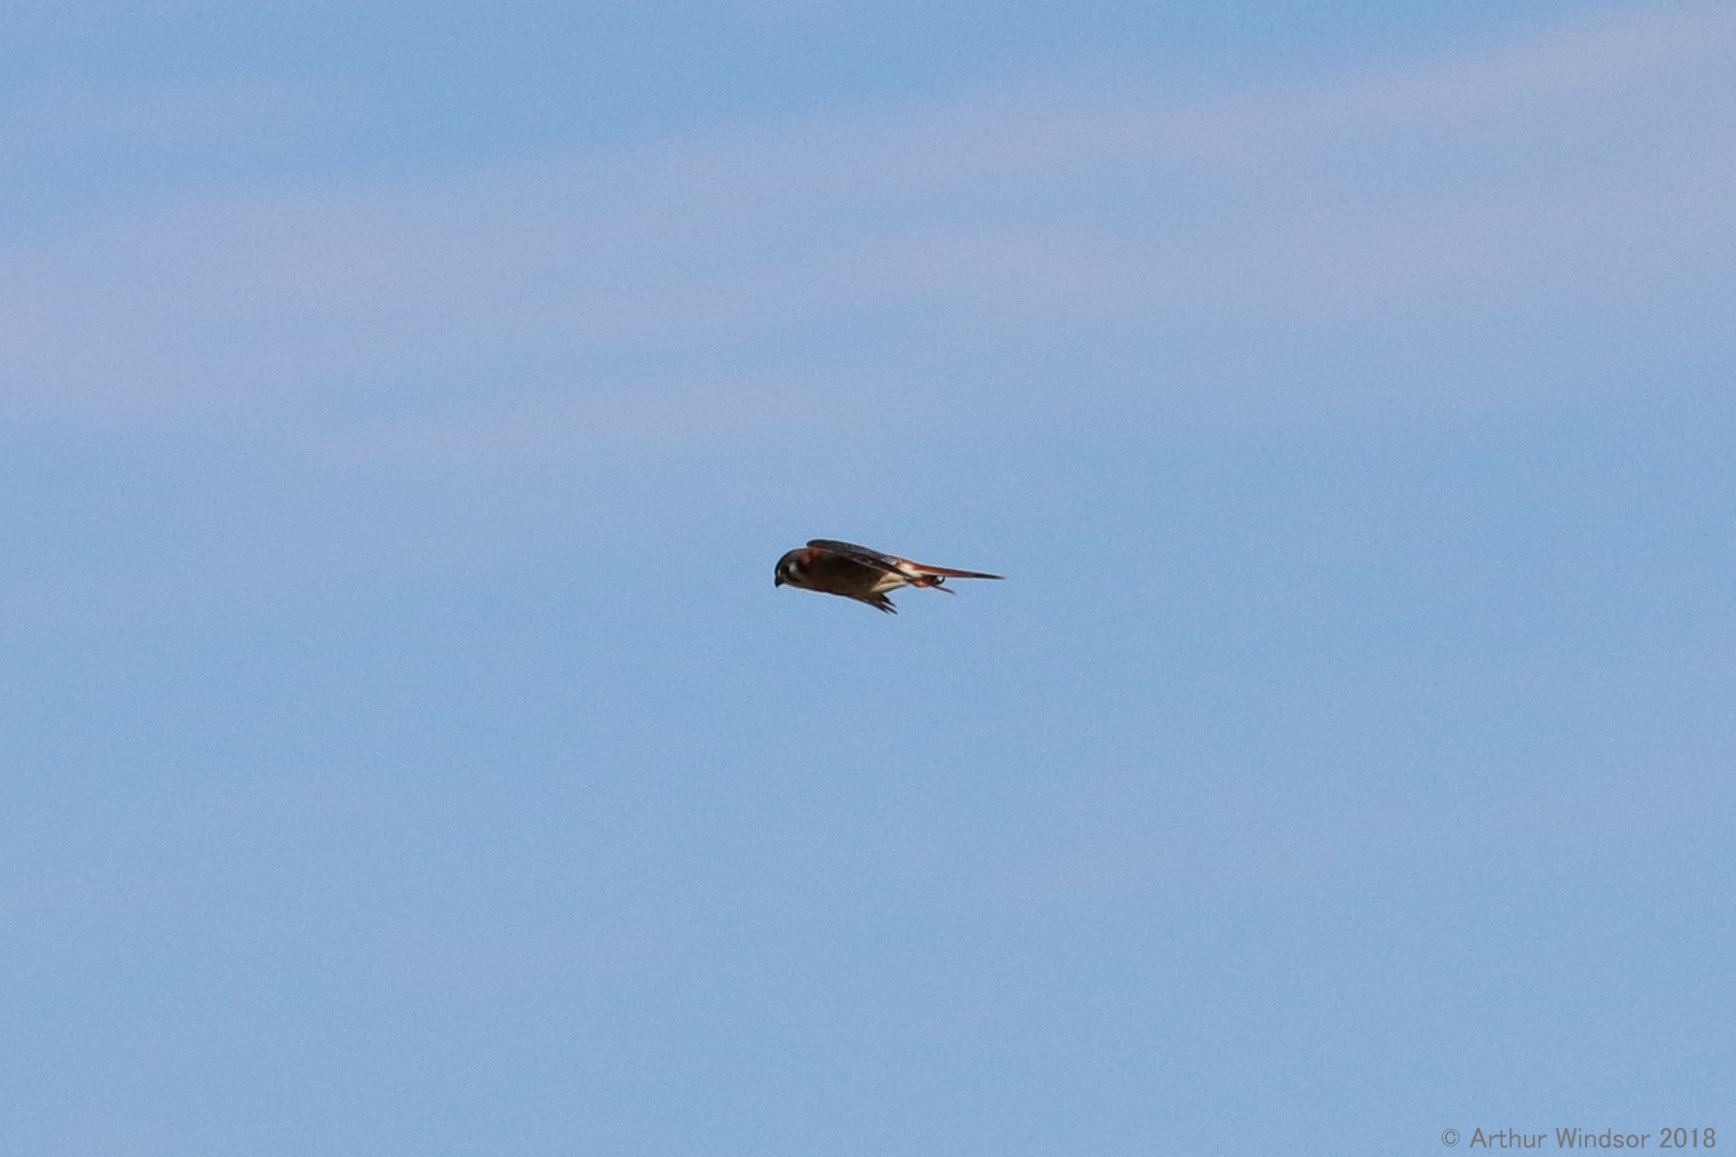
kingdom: Animalia
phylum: Chordata
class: Aves
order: Falconiformes
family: Falconidae
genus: Falco
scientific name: Falco sparverius
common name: American kestrel
